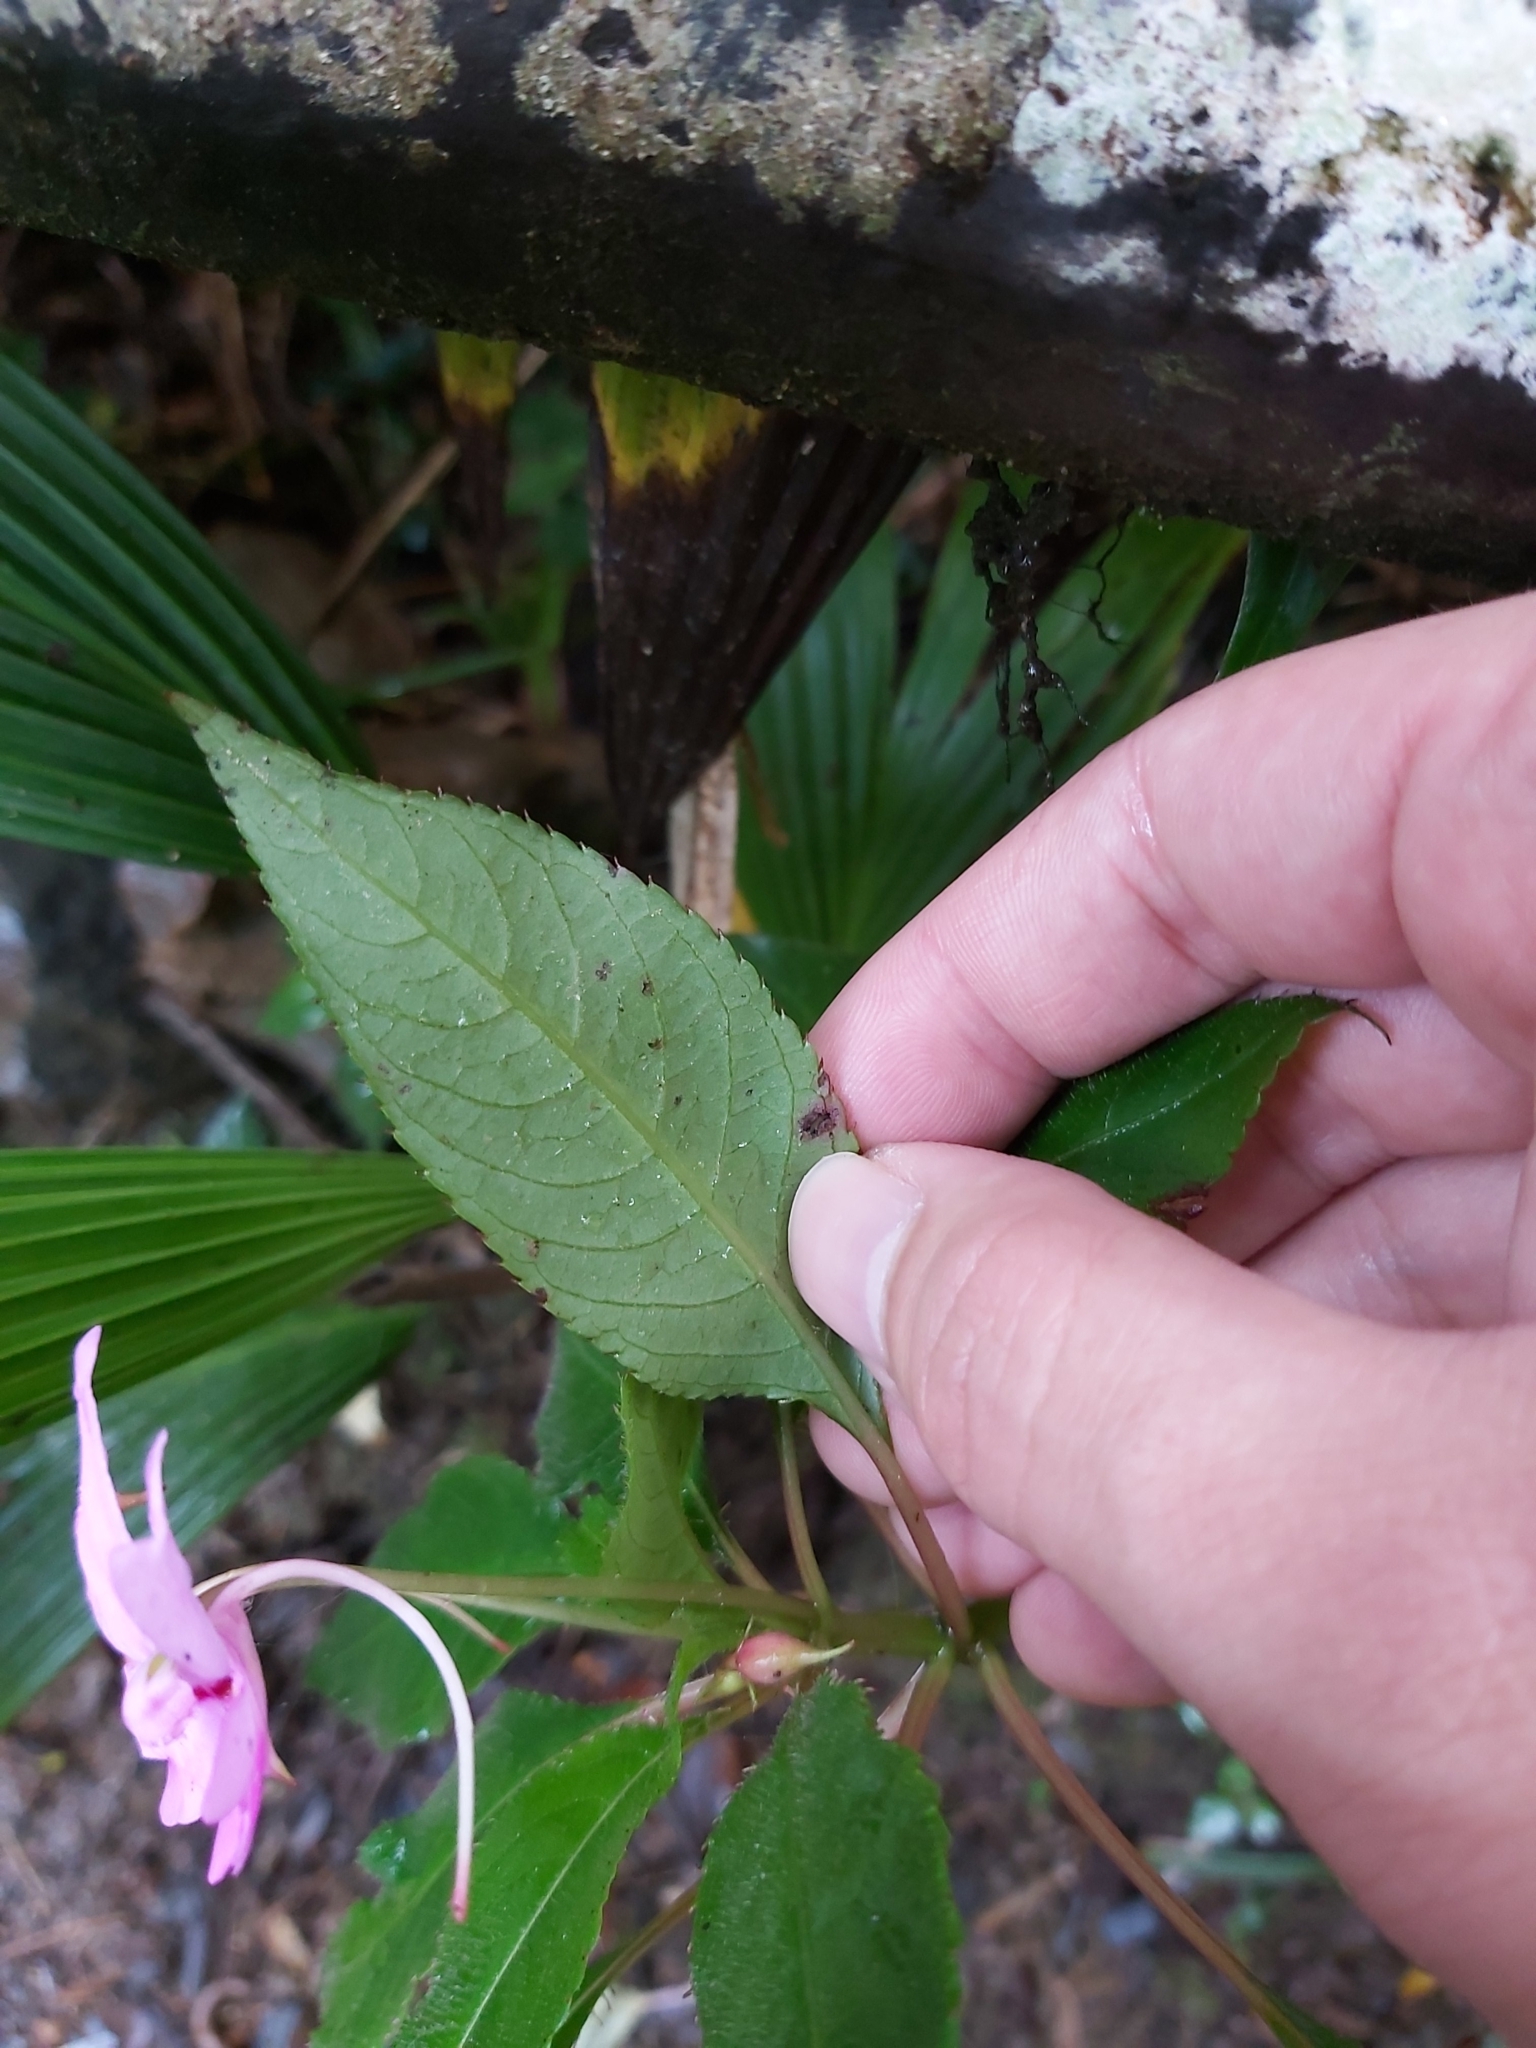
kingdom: Plantae
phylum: Tracheophyta
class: Magnoliopsida
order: Ericales
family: Balsaminaceae
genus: Impatiens
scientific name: Impatiens kinabaluensis
